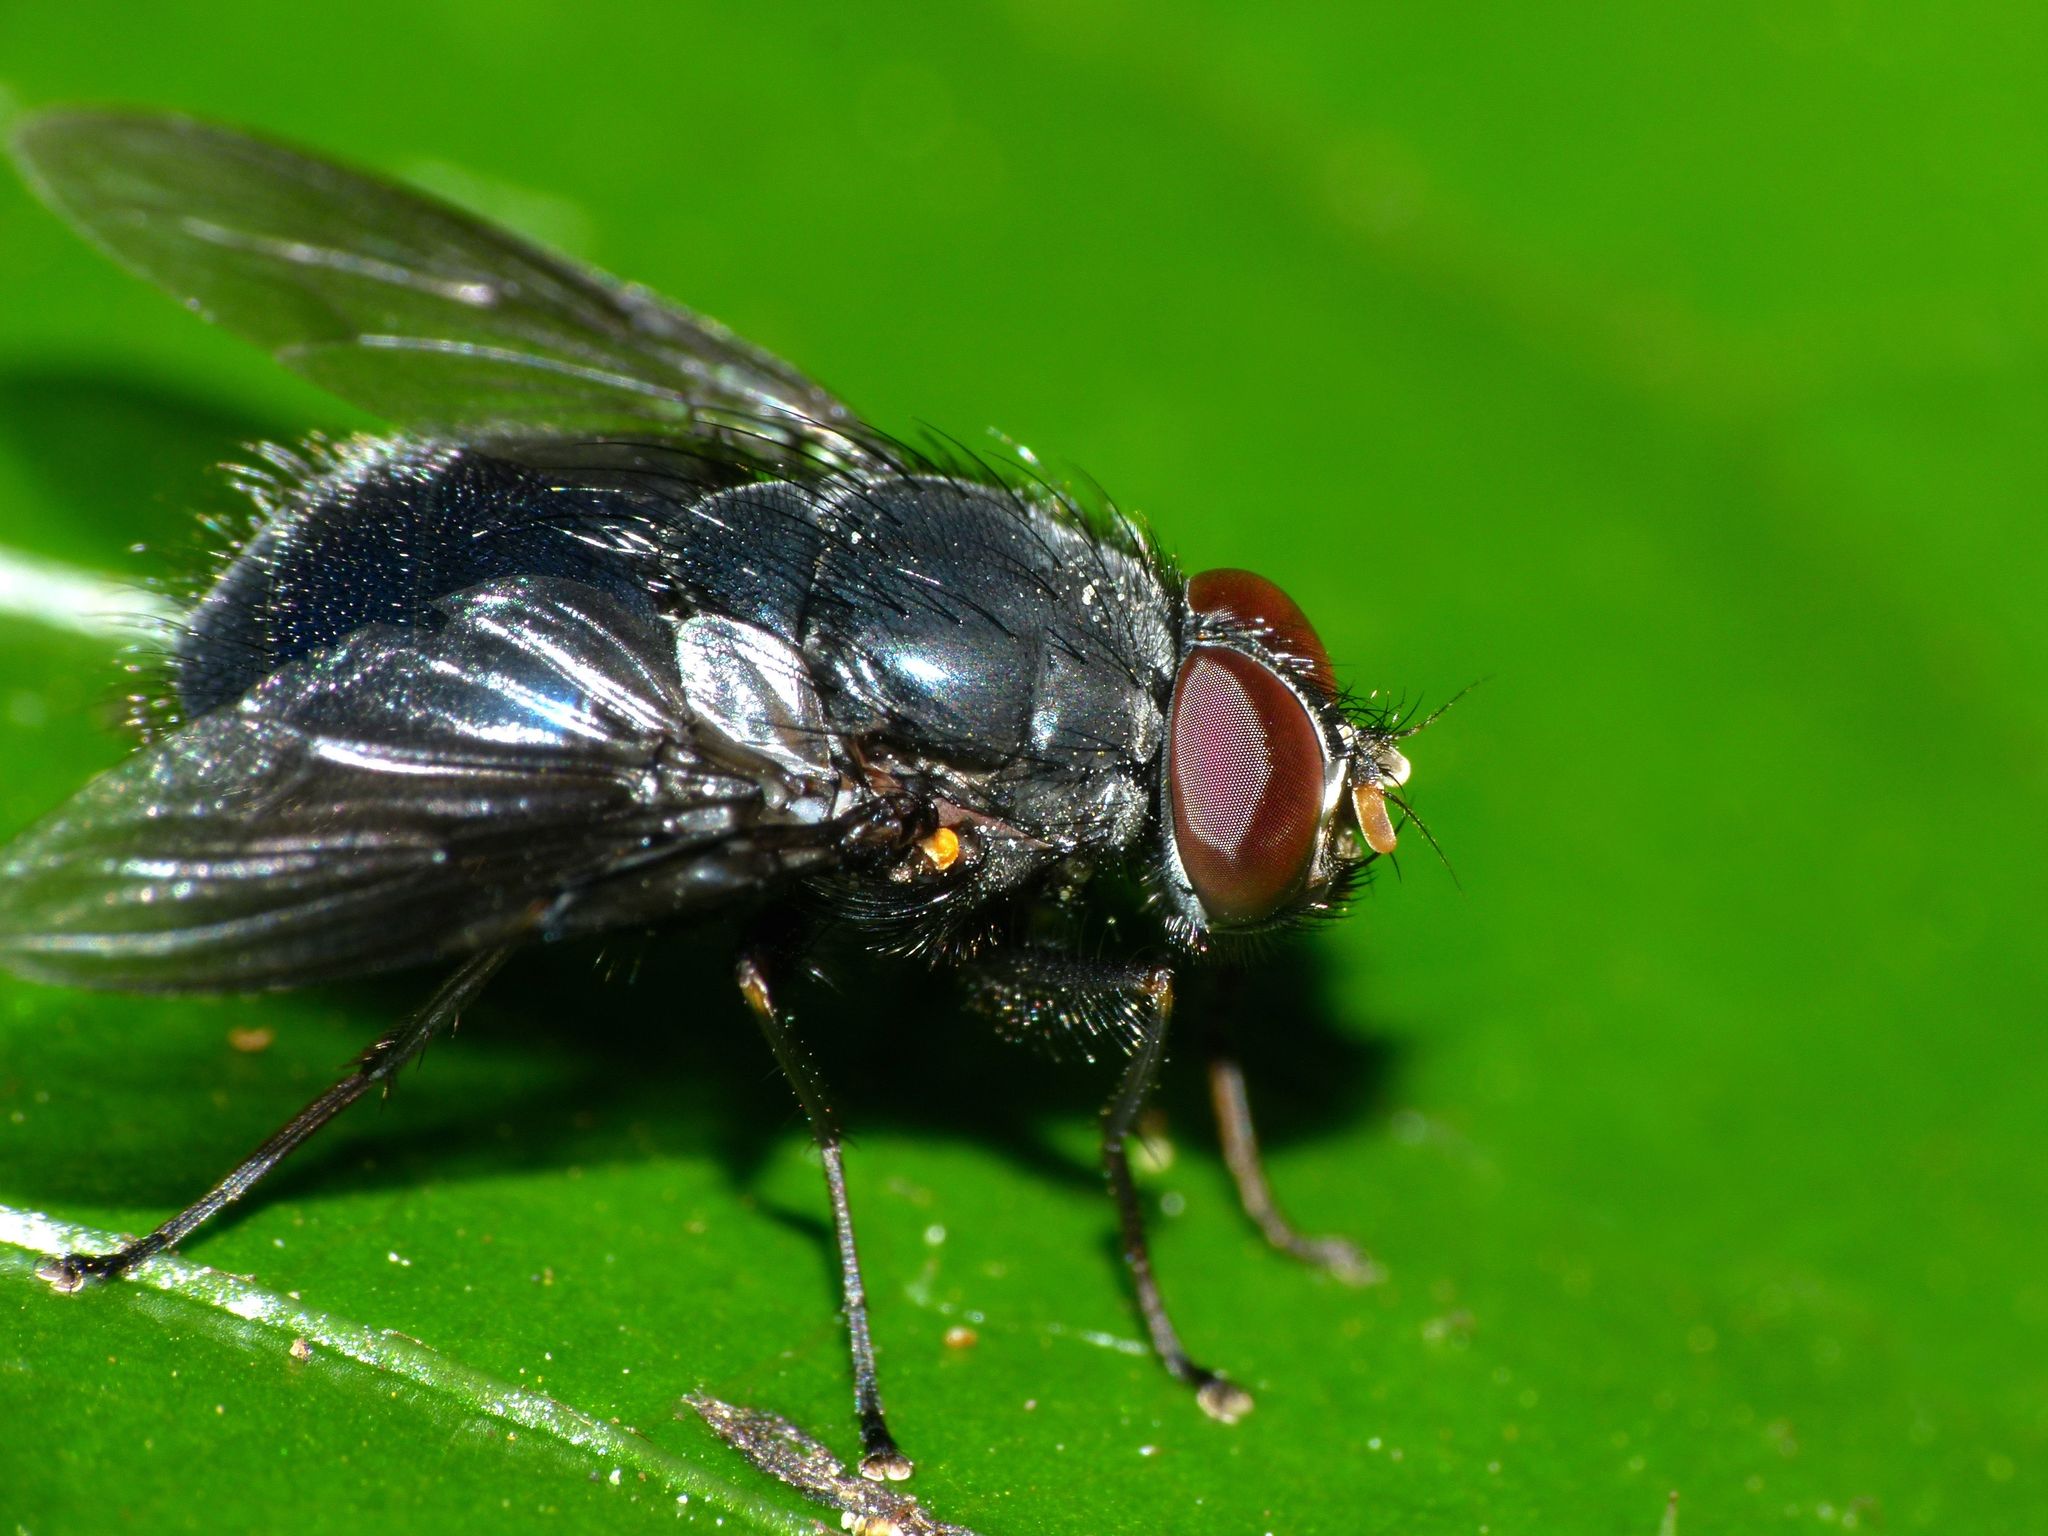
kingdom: Animalia
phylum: Arthropoda
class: Insecta
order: Diptera
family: Muscidae
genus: Calliphoroides
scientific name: Calliphoroides antennatis
